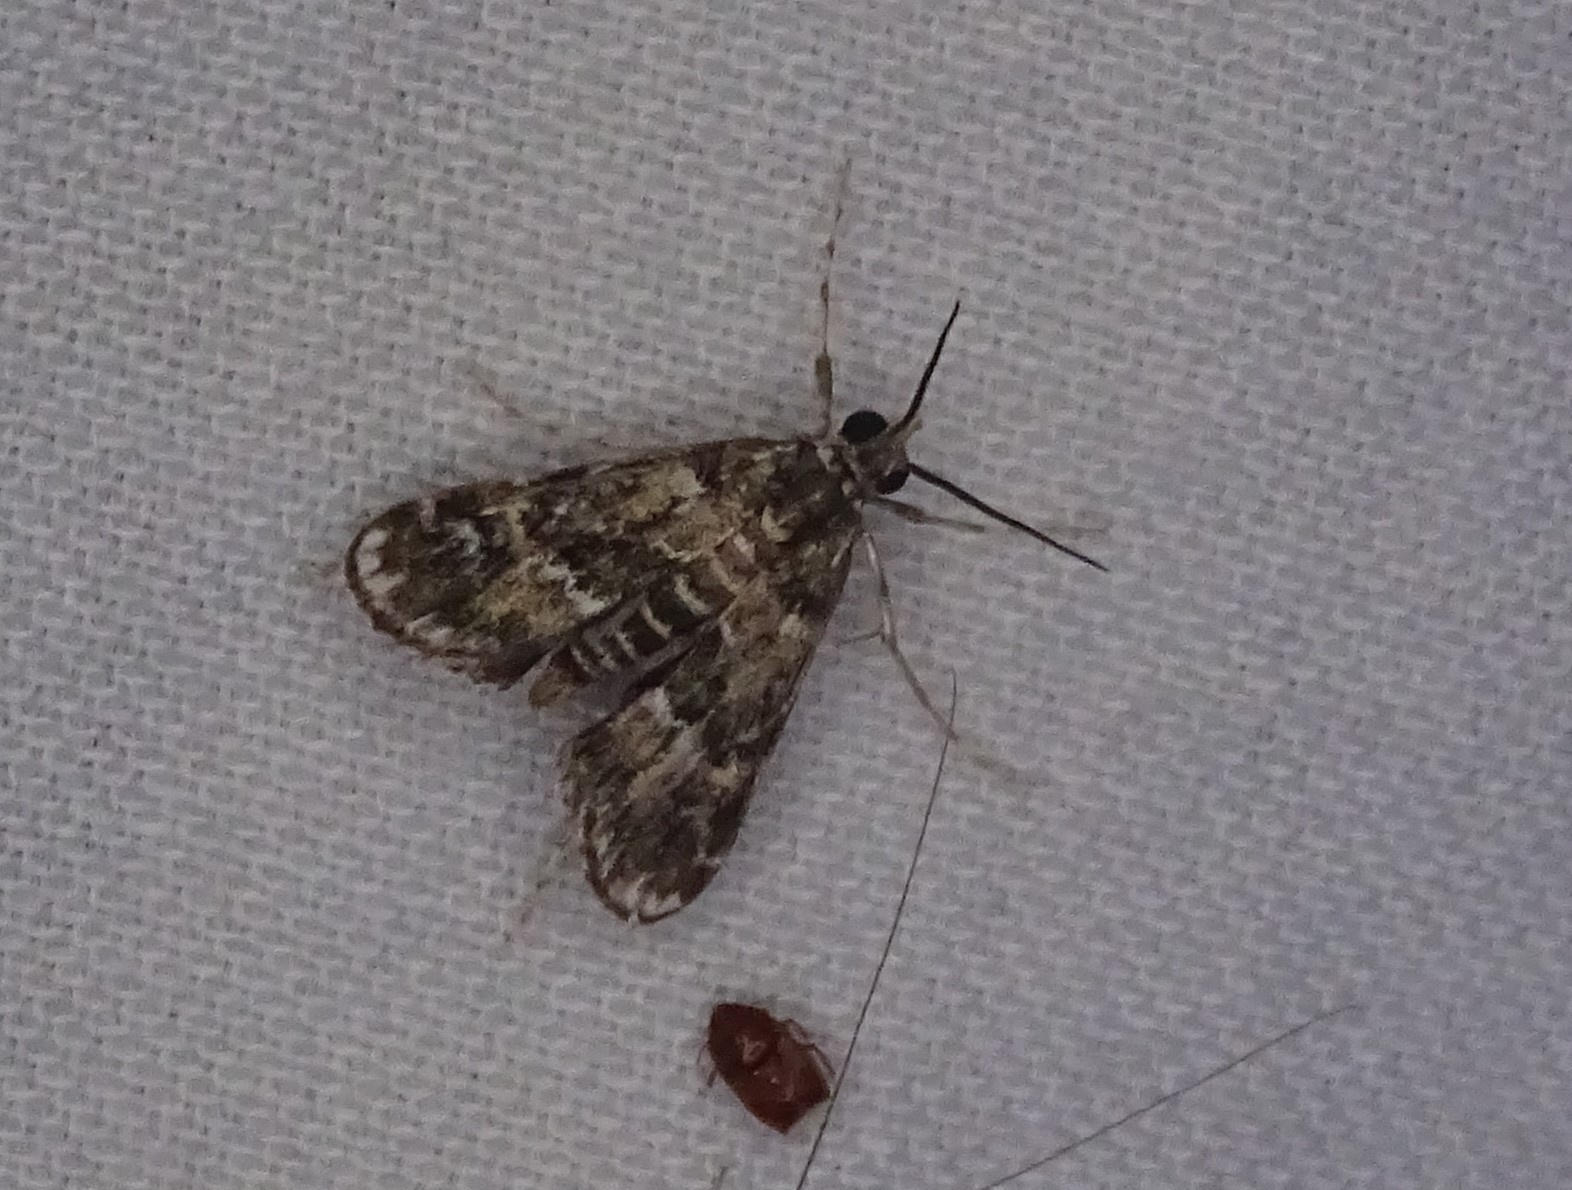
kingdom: Animalia
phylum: Arthropoda
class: Insecta
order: Lepidoptera
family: Crambidae
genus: Elophila
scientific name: Elophila obliteralis
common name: Waterlily leafcutter moth
